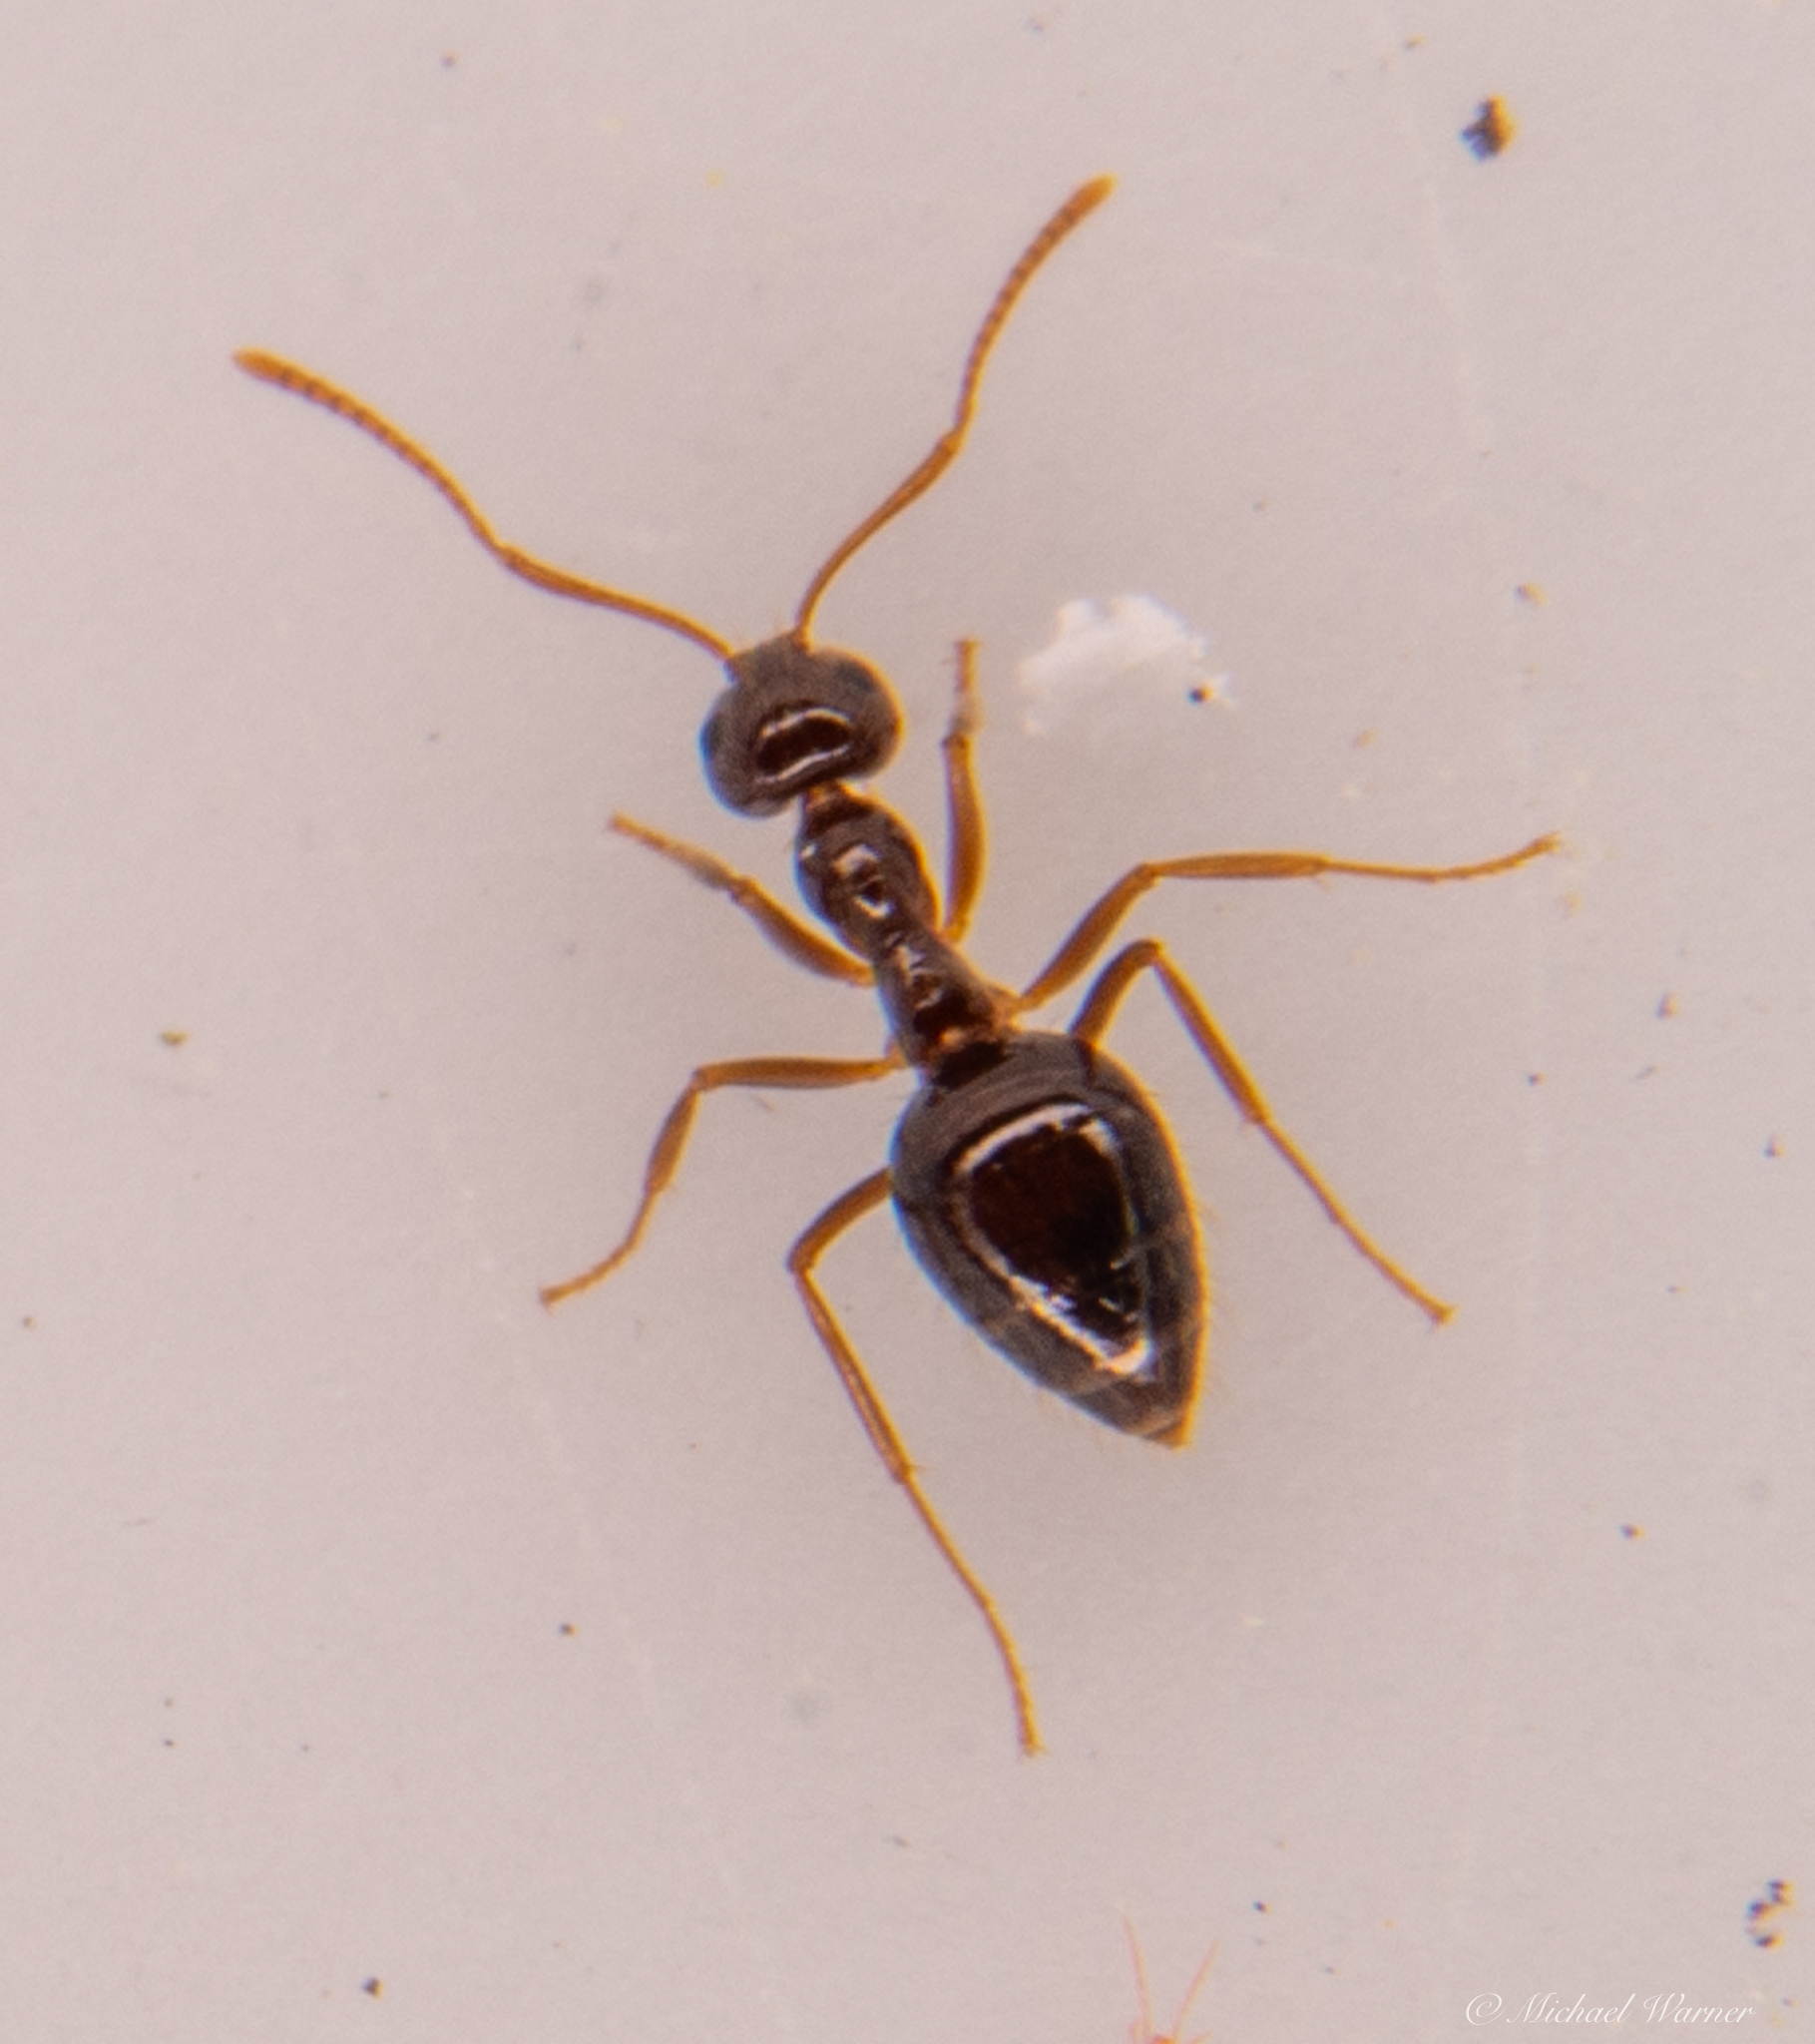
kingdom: Animalia
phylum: Arthropoda
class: Insecta
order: Hymenoptera
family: Formicidae
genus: Prenolepis
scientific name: Prenolepis imparis
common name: Small honey ant
